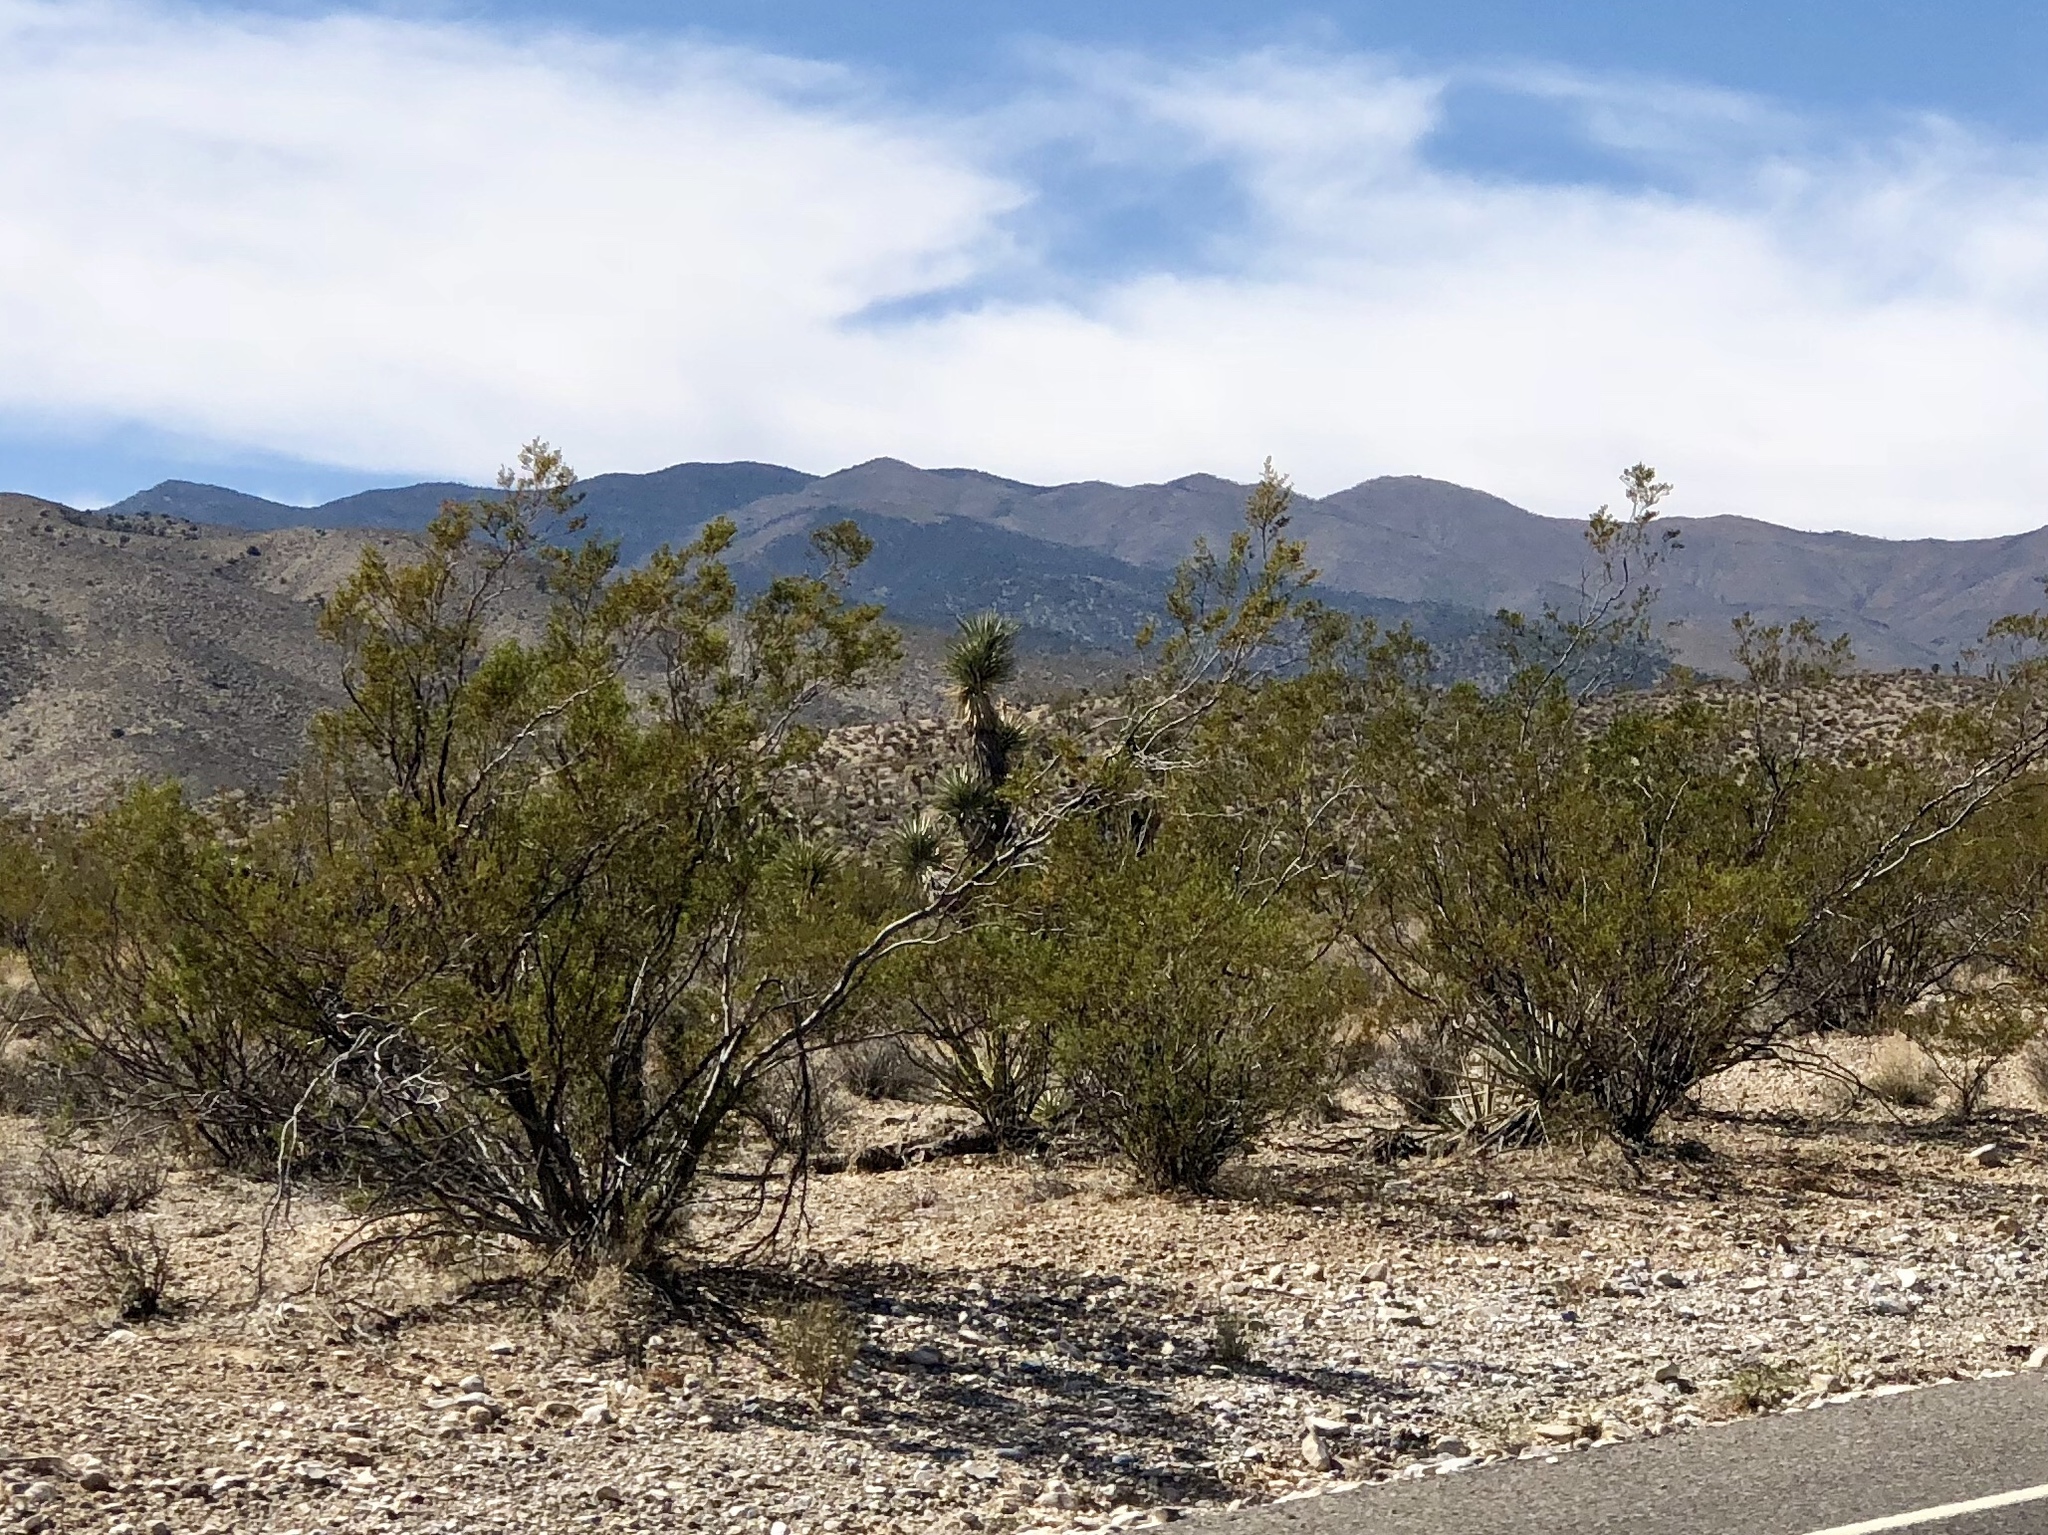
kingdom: Plantae
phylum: Tracheophyta
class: Magnoliopsida
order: Zygophyllales
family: Zygophyllaceae
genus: Larrea
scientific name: Larrea tridentata
